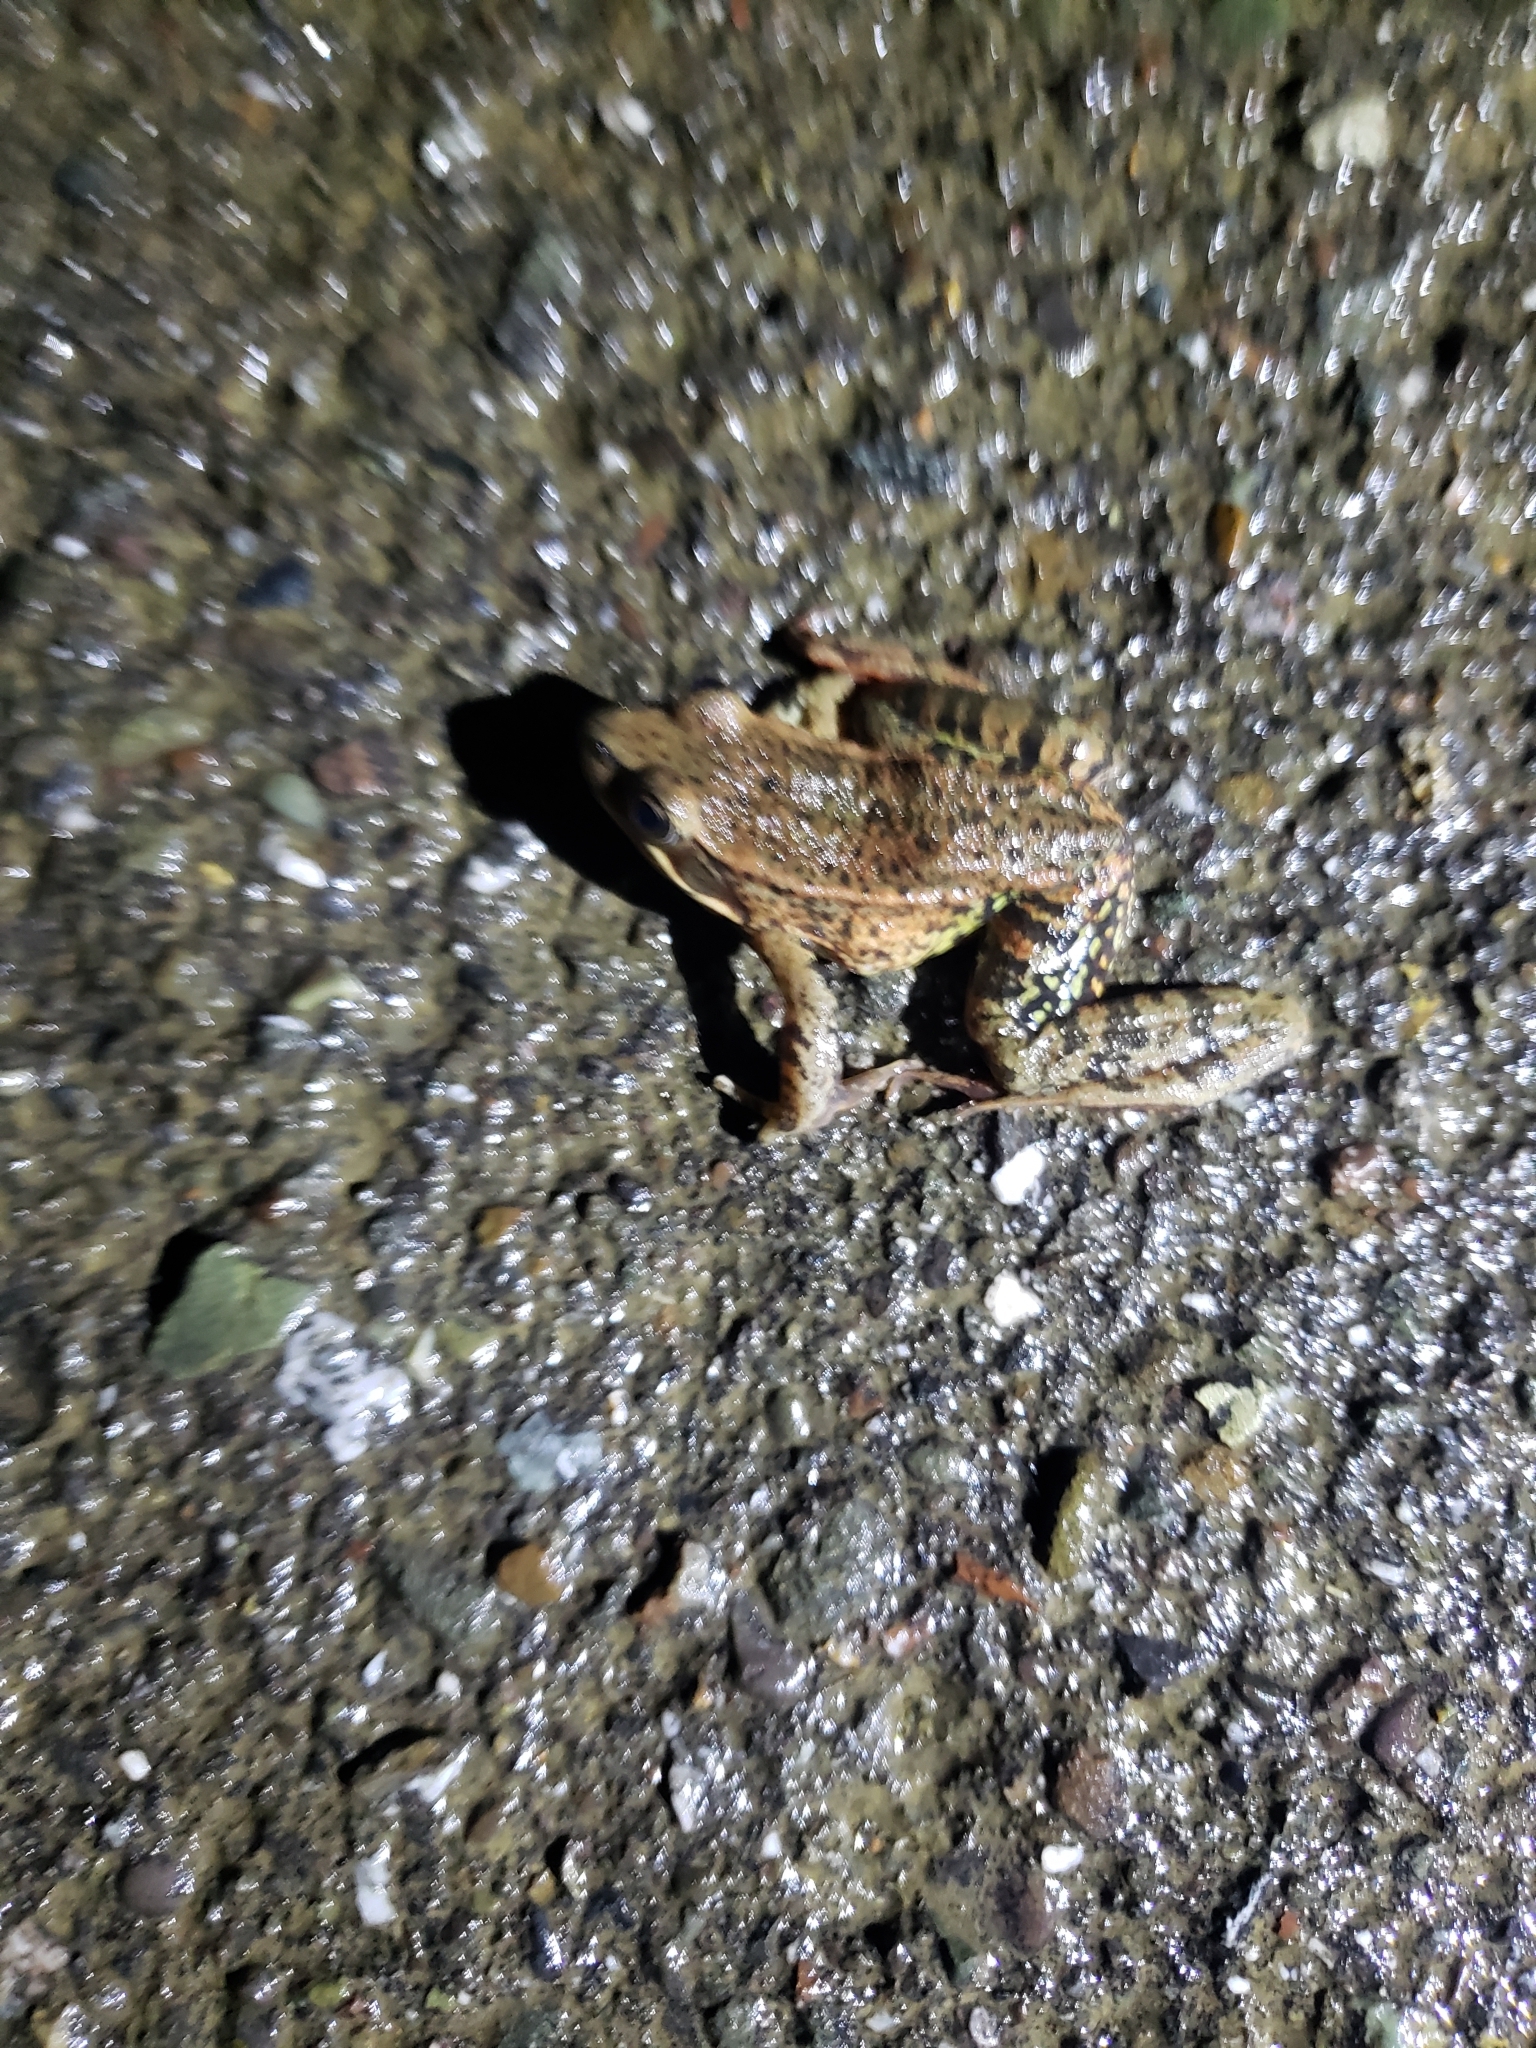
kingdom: Animalia
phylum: Chordata
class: Amphibia
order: Anura
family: Ranidae
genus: Rana
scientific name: Rana draytonii
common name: California red-legged frog
